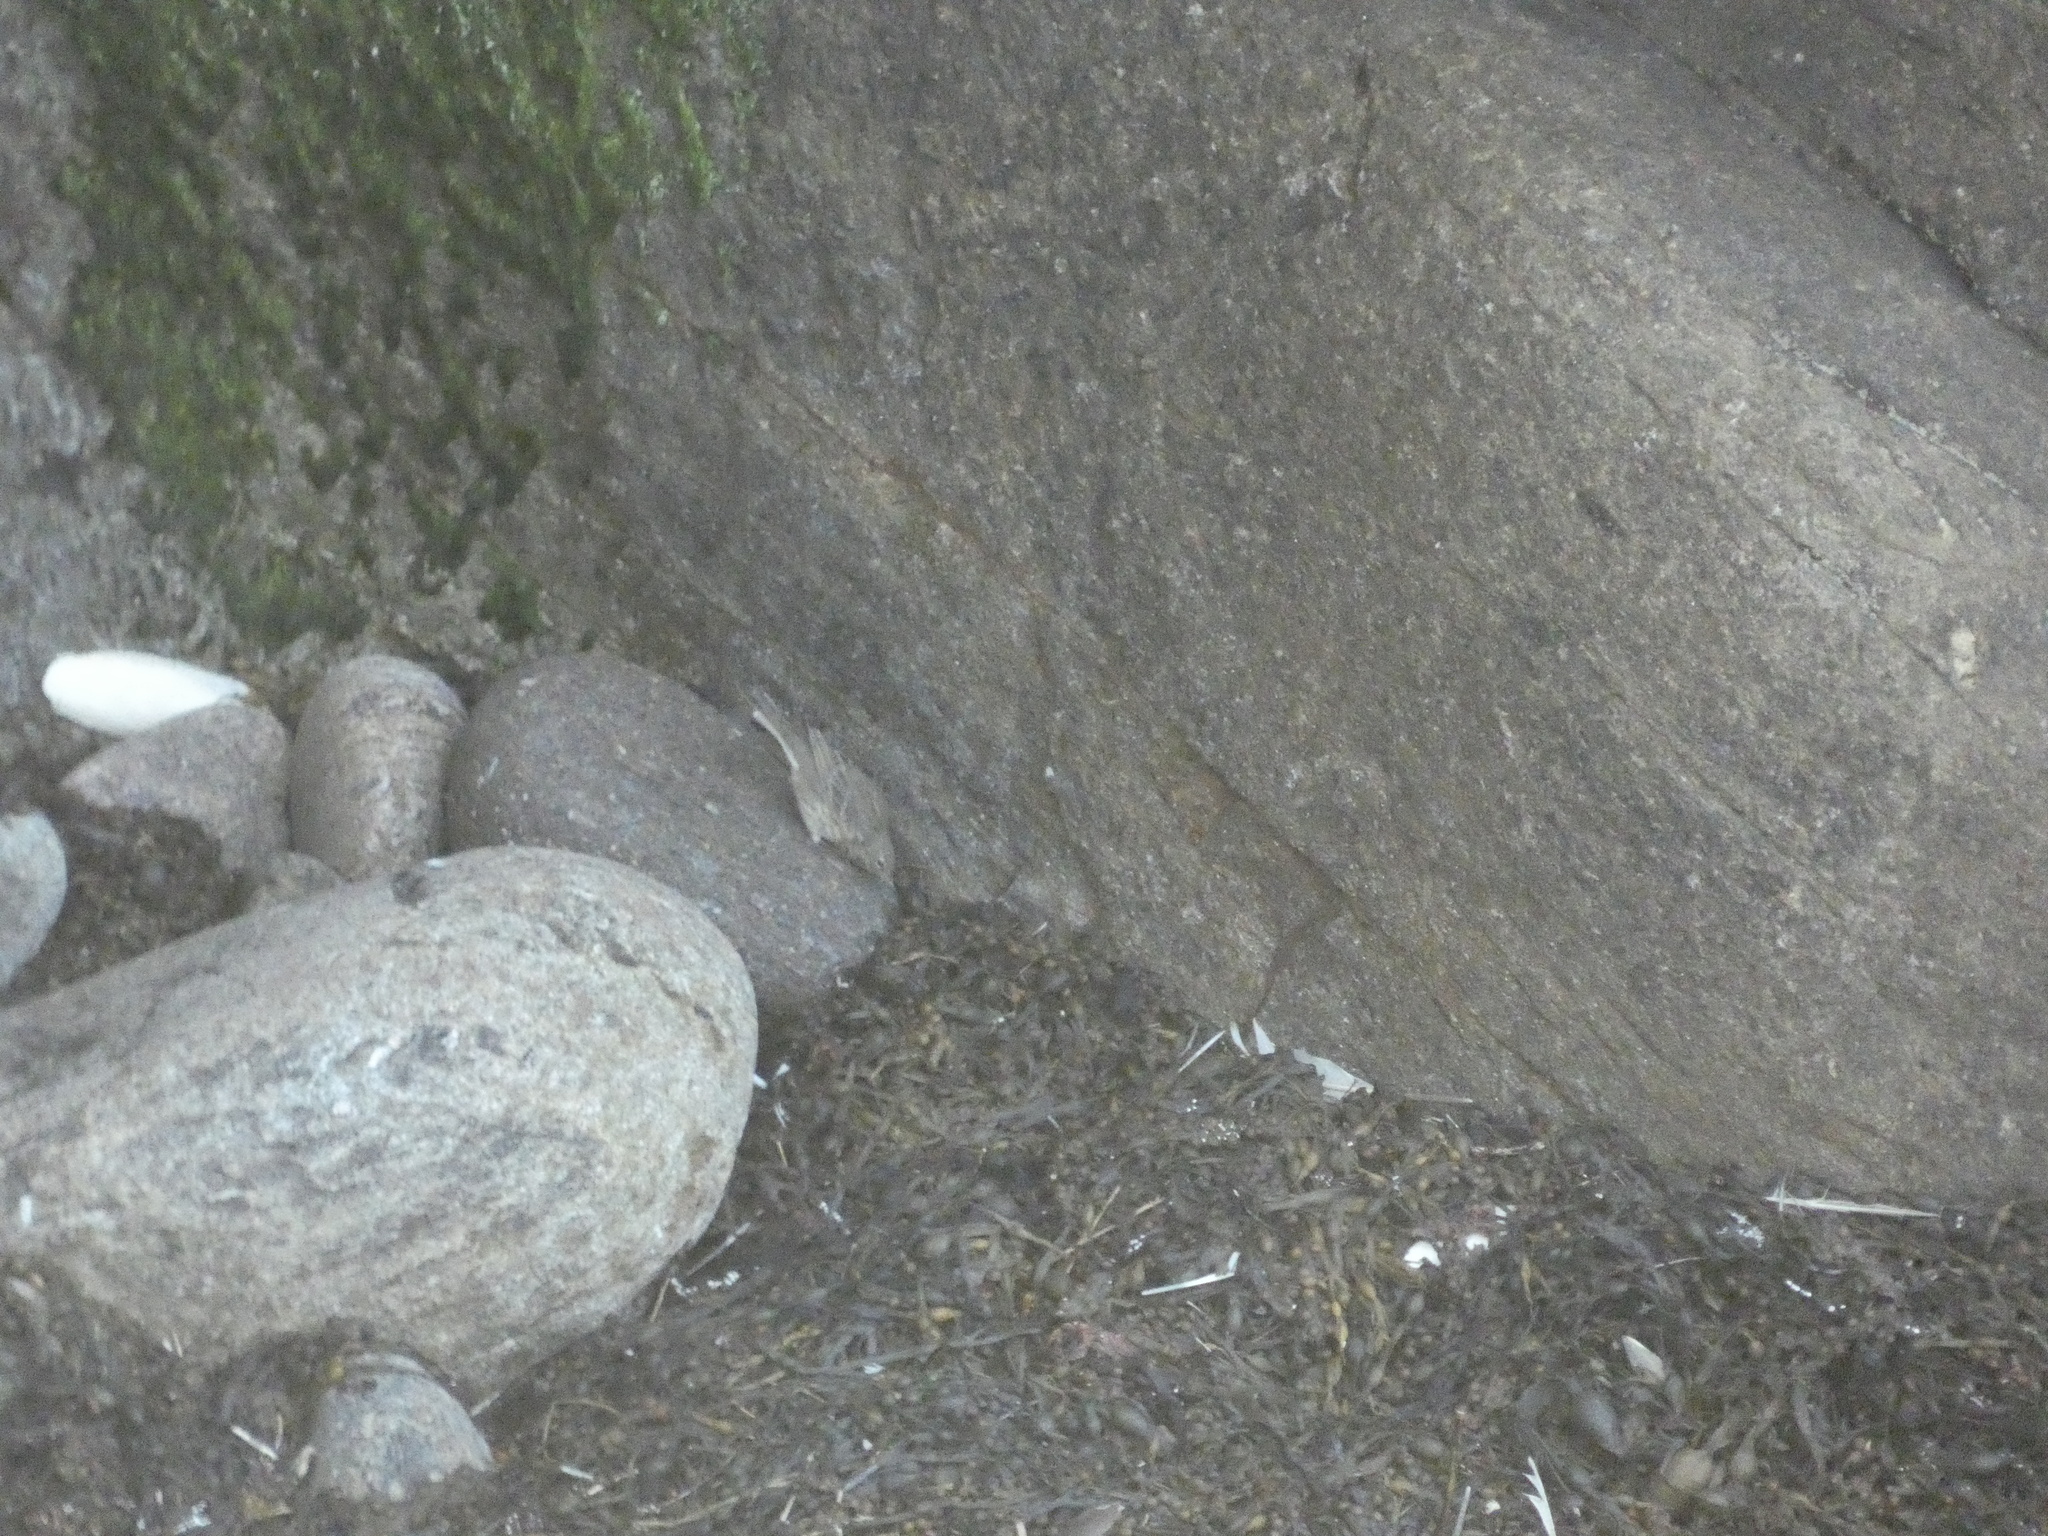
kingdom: Animalia
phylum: Chordata
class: Aves
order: Passeriformes
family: Motacillidae
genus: Anthus
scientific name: Anthus petrosus
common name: Eurasian rock pipit
